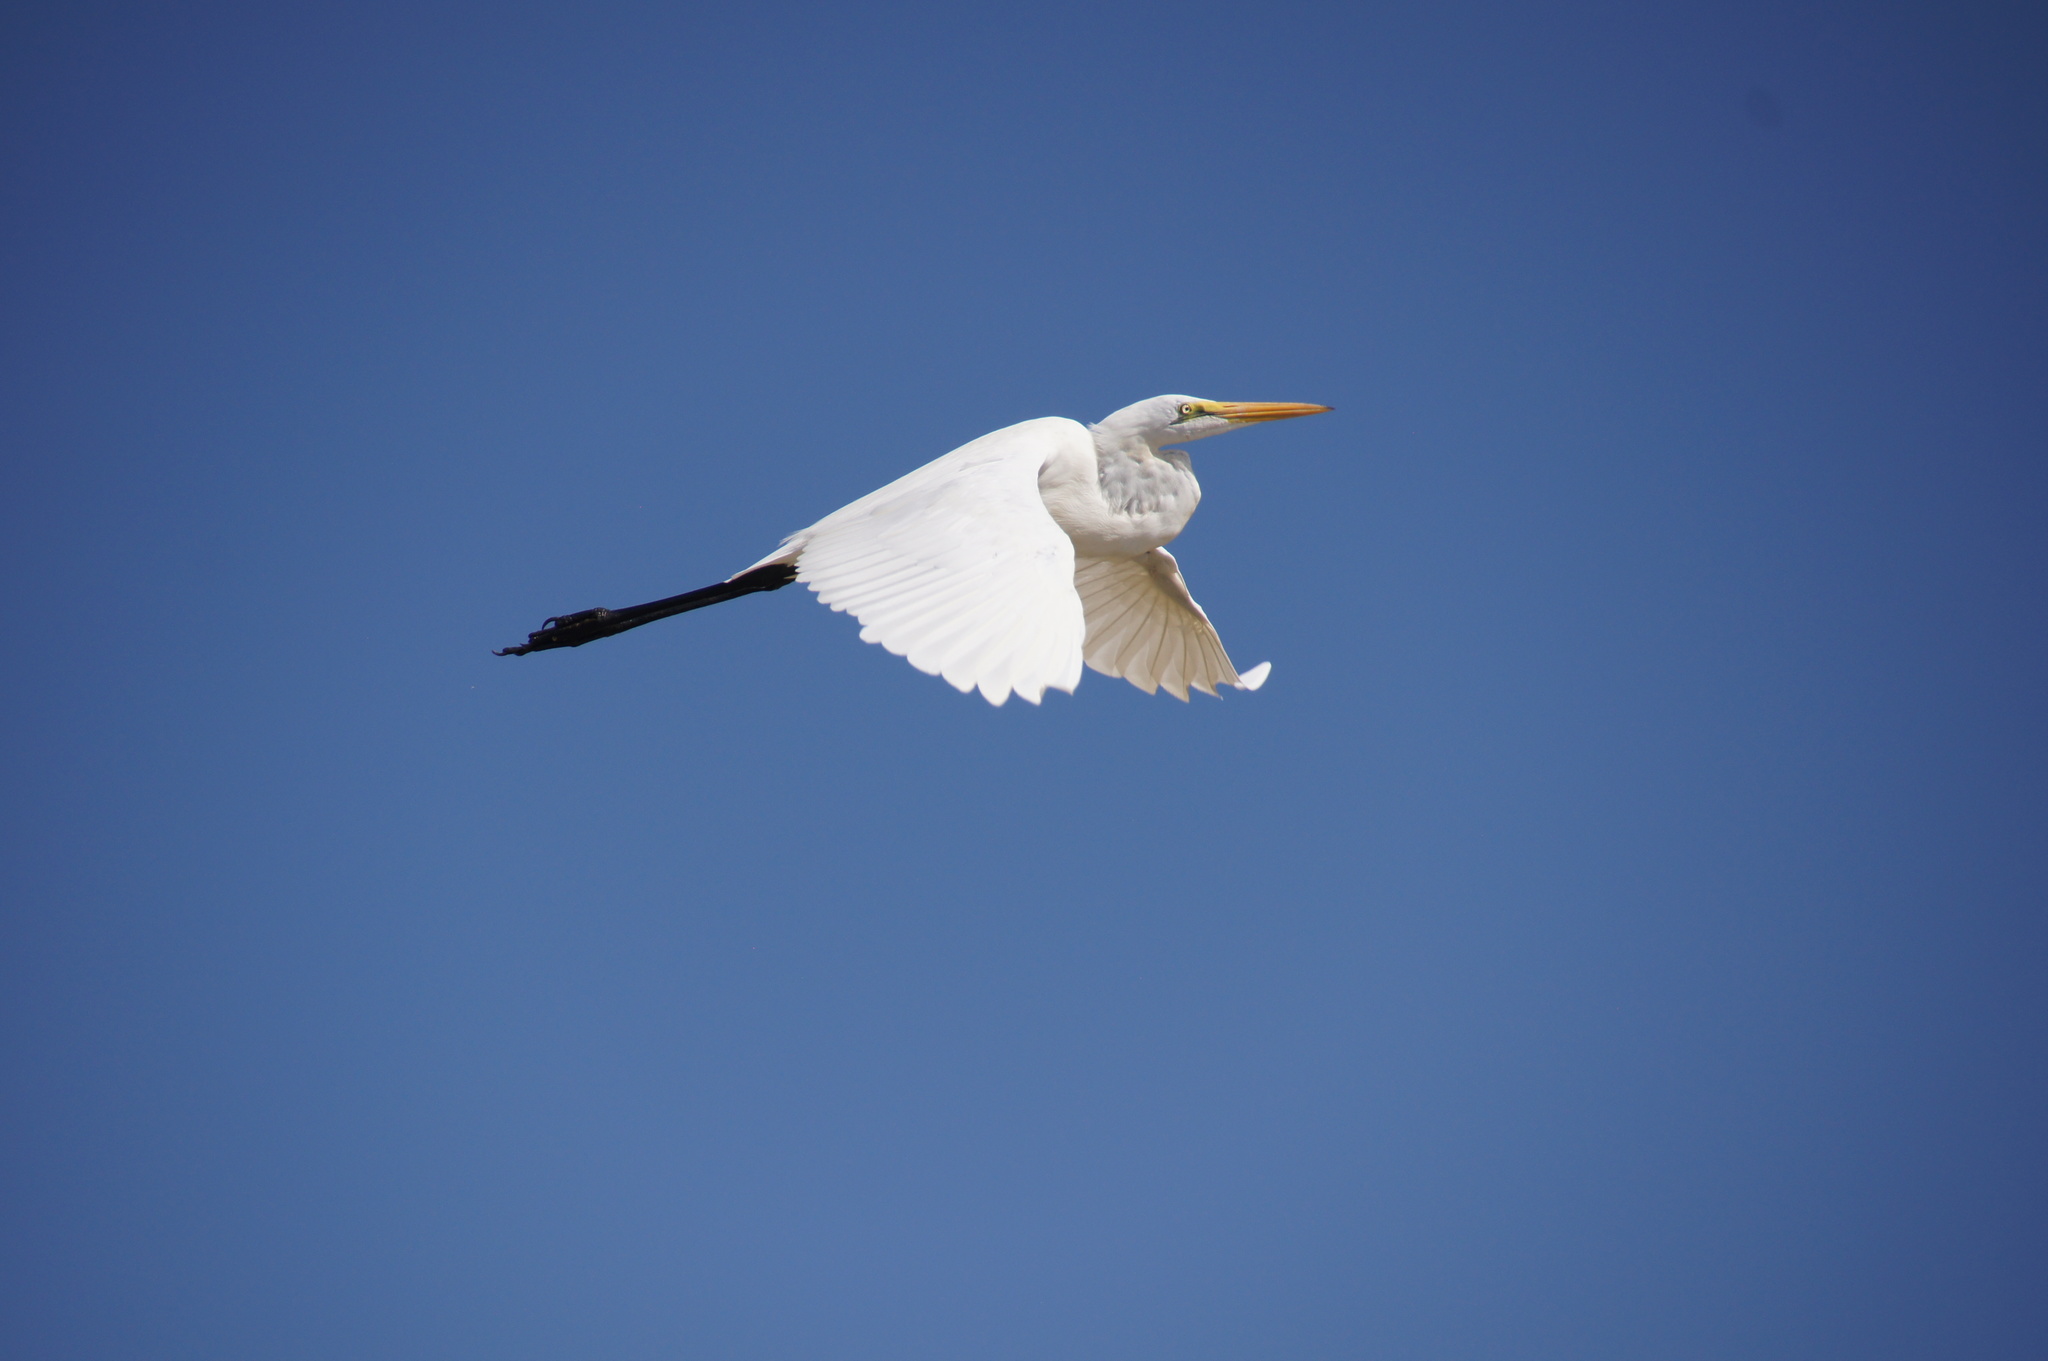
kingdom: Animalia
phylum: Chordata
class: Aves
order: Pelecaniformes
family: Ardeidae
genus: Ardea
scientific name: Ardea alba
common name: Great egret
